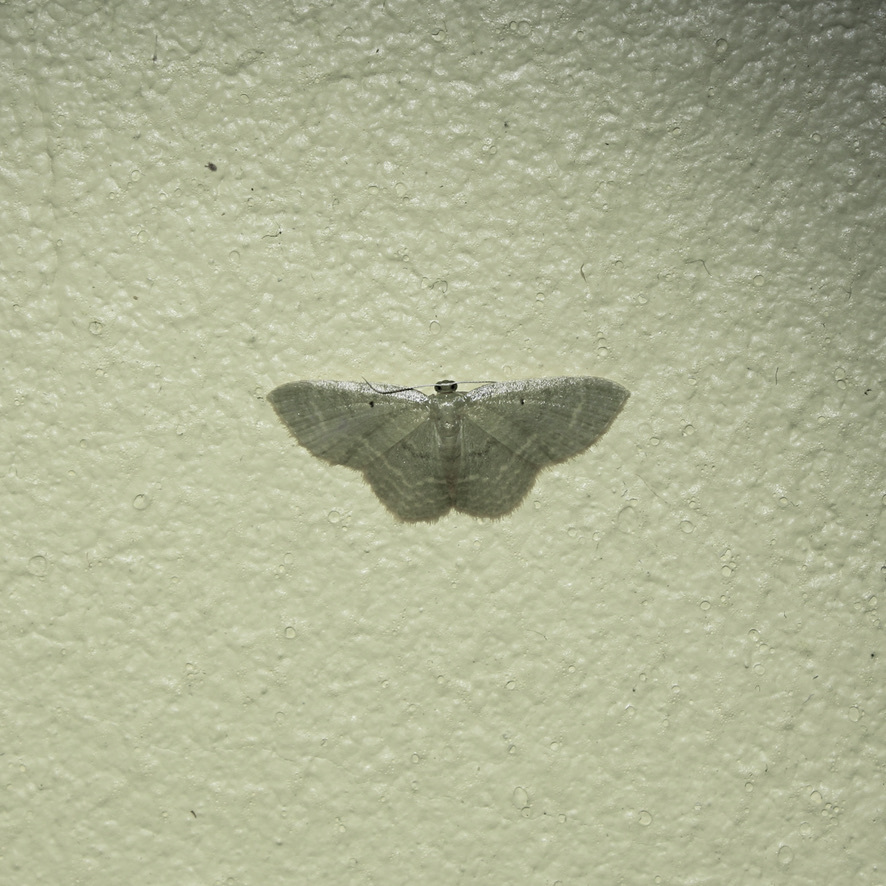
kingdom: Animalia
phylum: Arthropoda
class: Insecta
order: Lepidoptera
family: Geometridae
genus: Eois
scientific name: Eois marcearia
